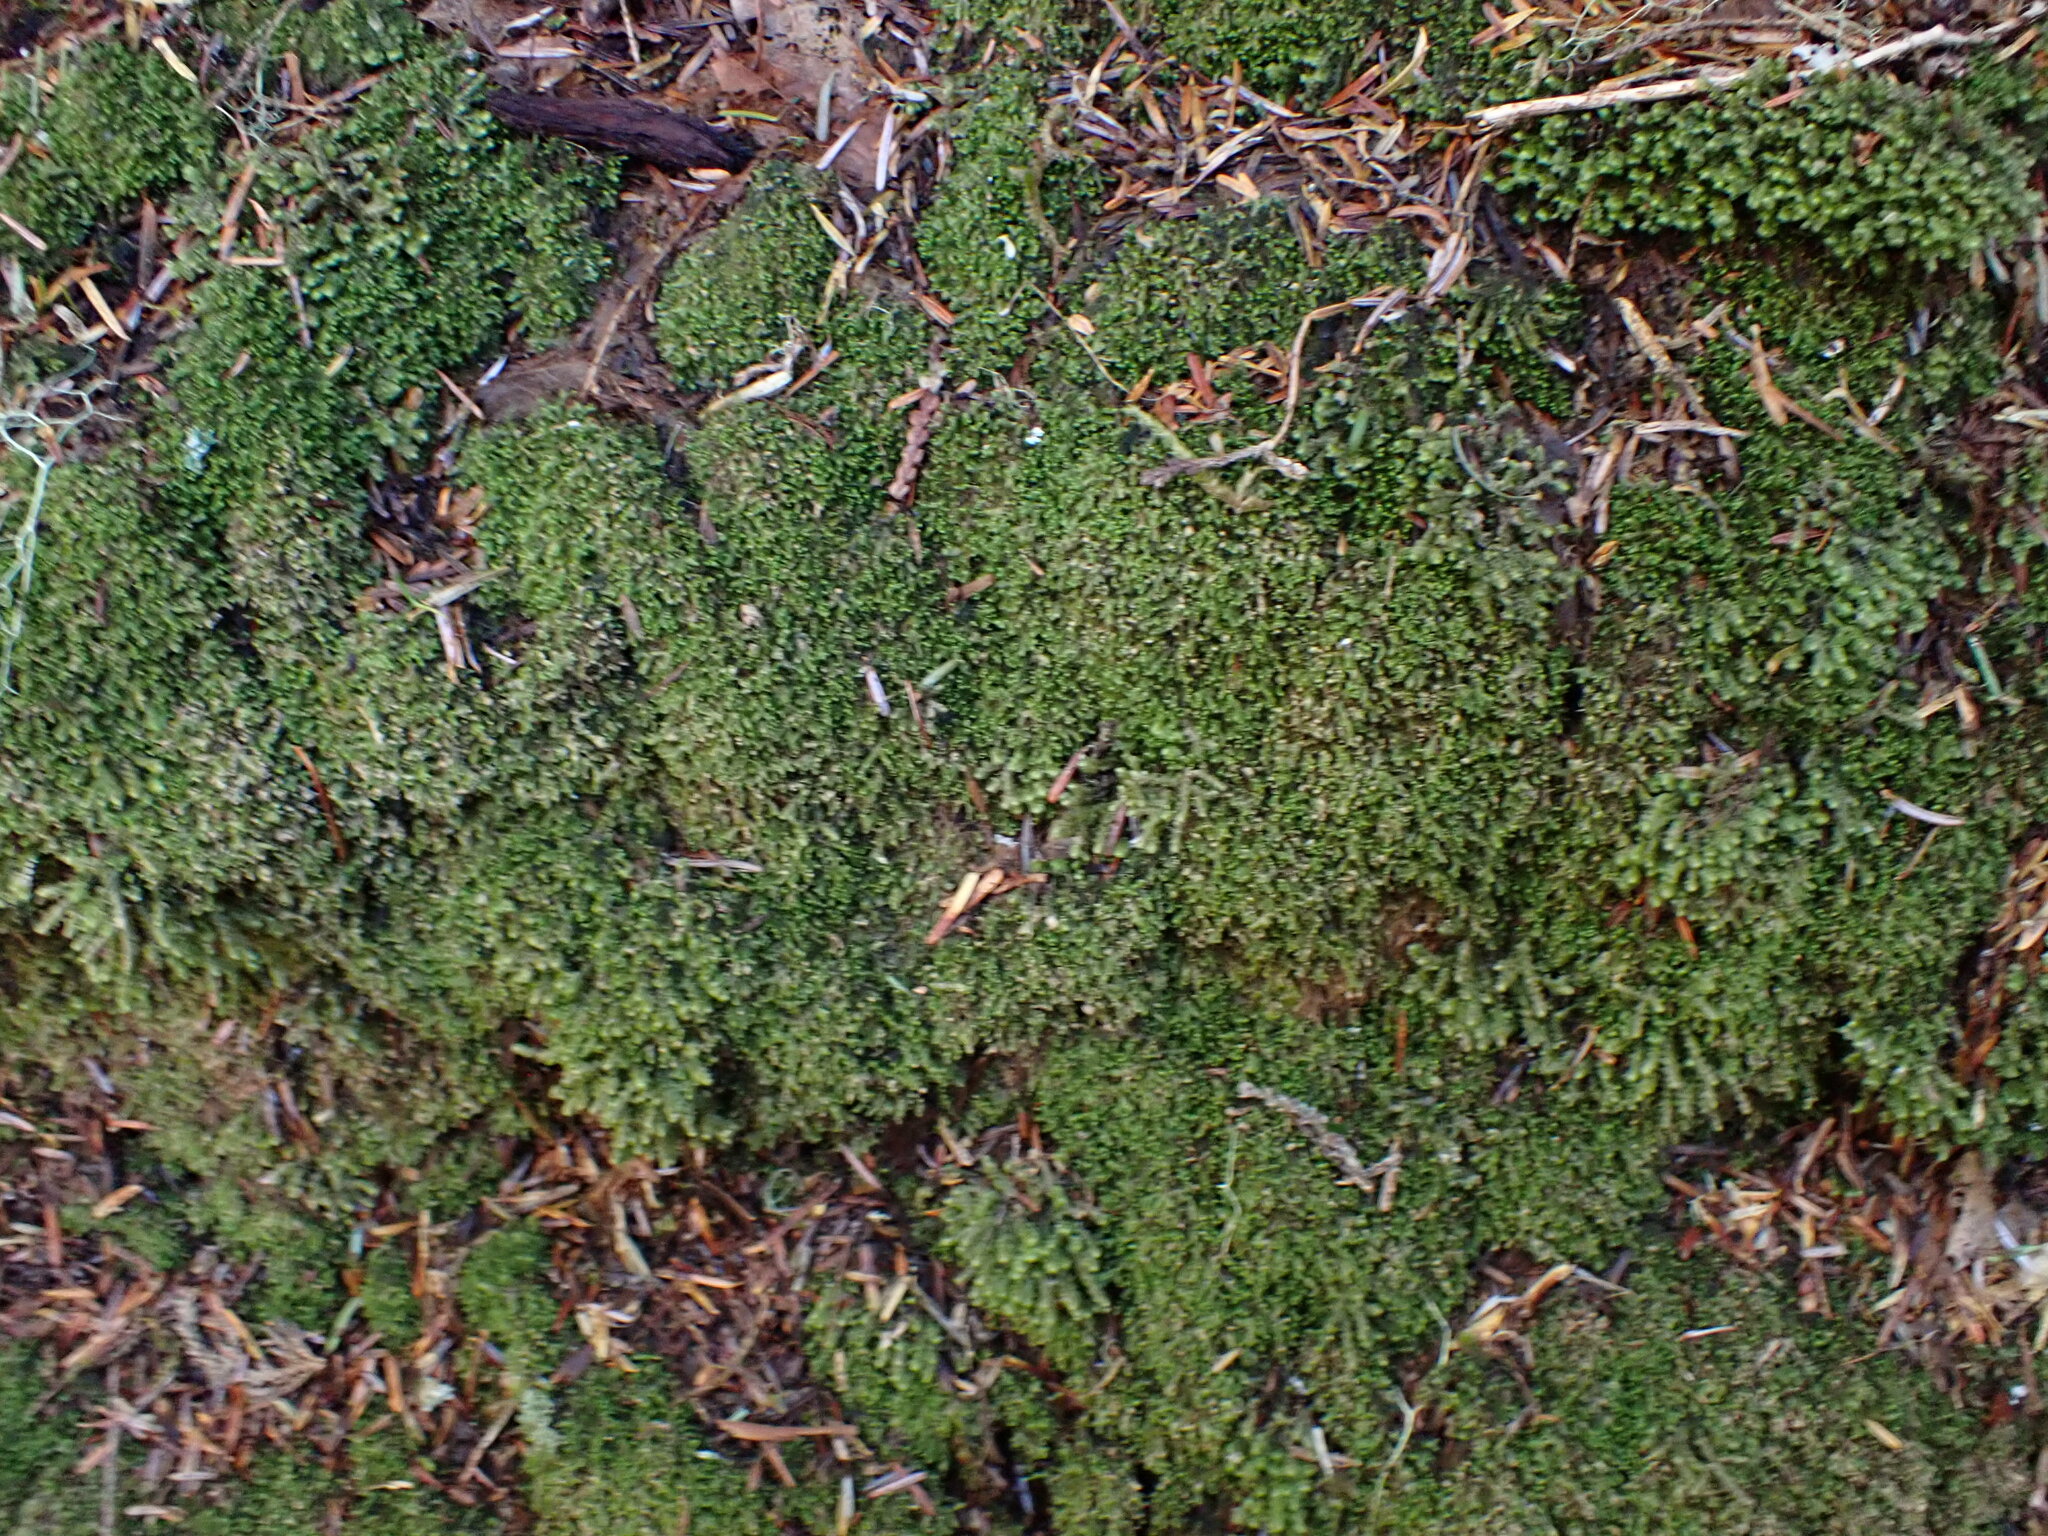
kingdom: Plantae
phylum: Marchantiophyta
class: Jungermanniopsida
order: Jungermanniales
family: Lepidoziaceae
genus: Bazzania
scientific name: Bazzania denudata
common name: Naked whipwort
